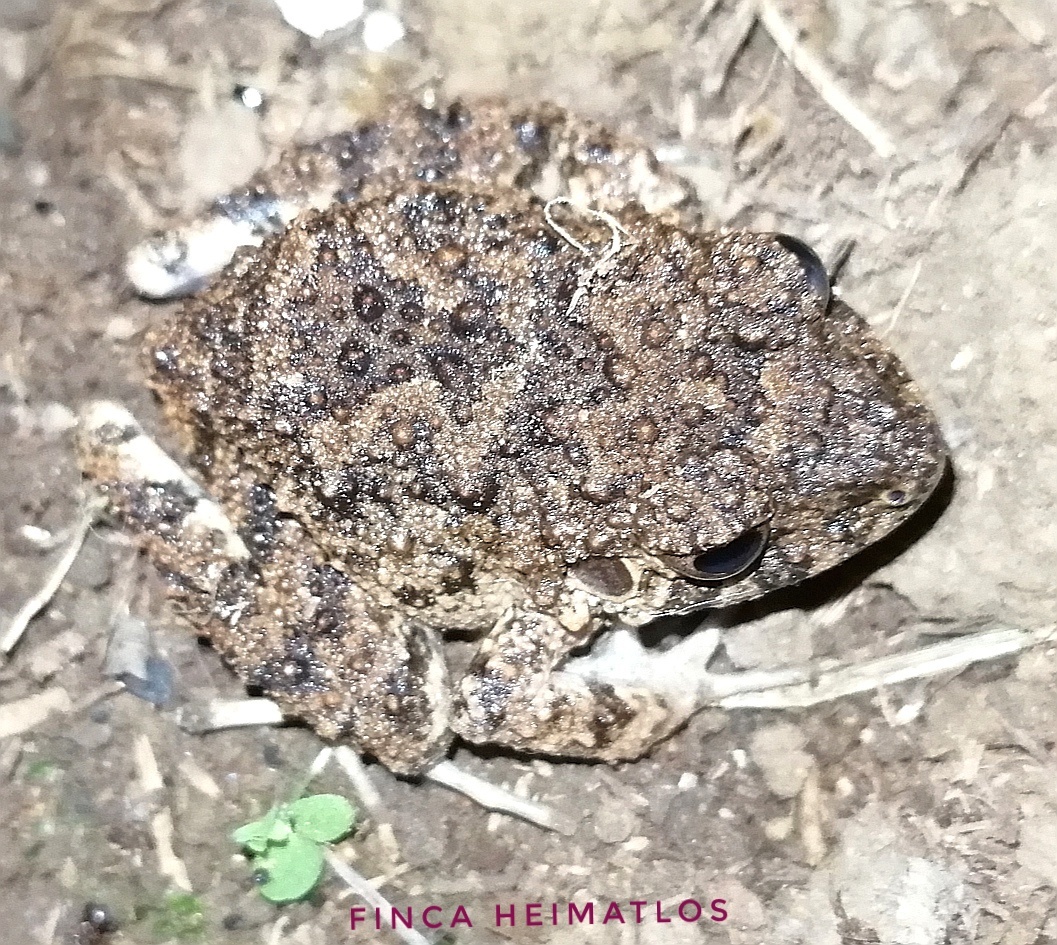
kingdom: Animalia
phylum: Chordata
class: Amphibia
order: Anura
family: Craugastoridae
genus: Oreobates
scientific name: Oreobates quixensis
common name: Common big-headed frog
